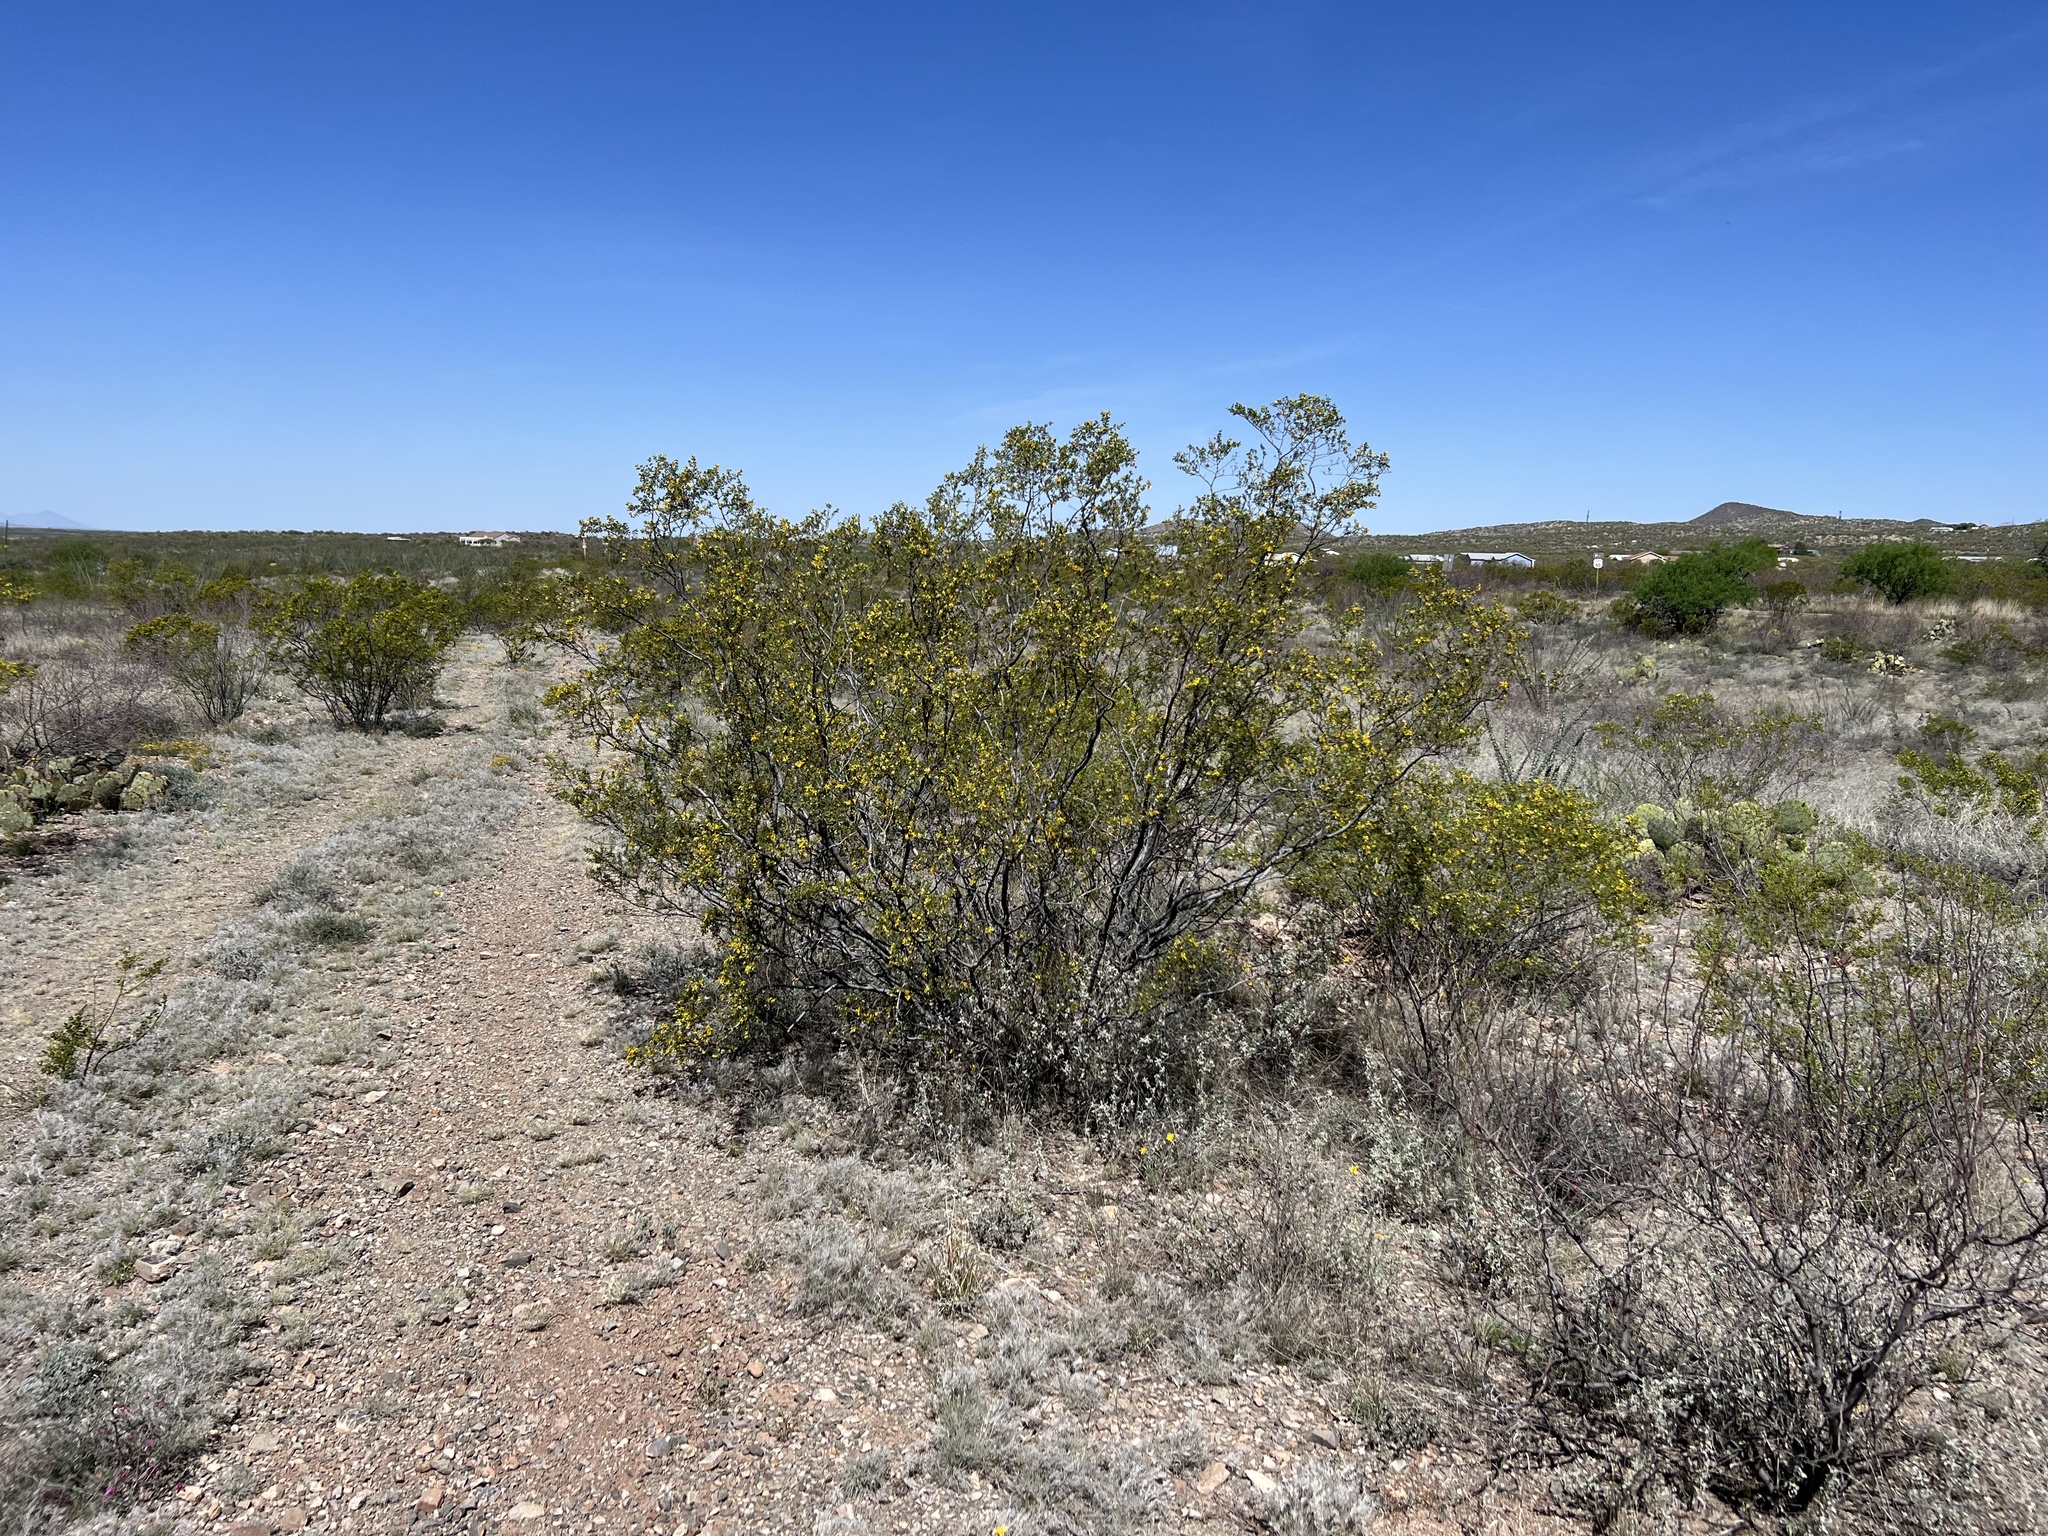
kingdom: Plantae
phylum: Tracheophyta
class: Magnoliopsida
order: Zygophyllales
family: Zygophyllaceae
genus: Larrea
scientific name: Larrea tridentata
